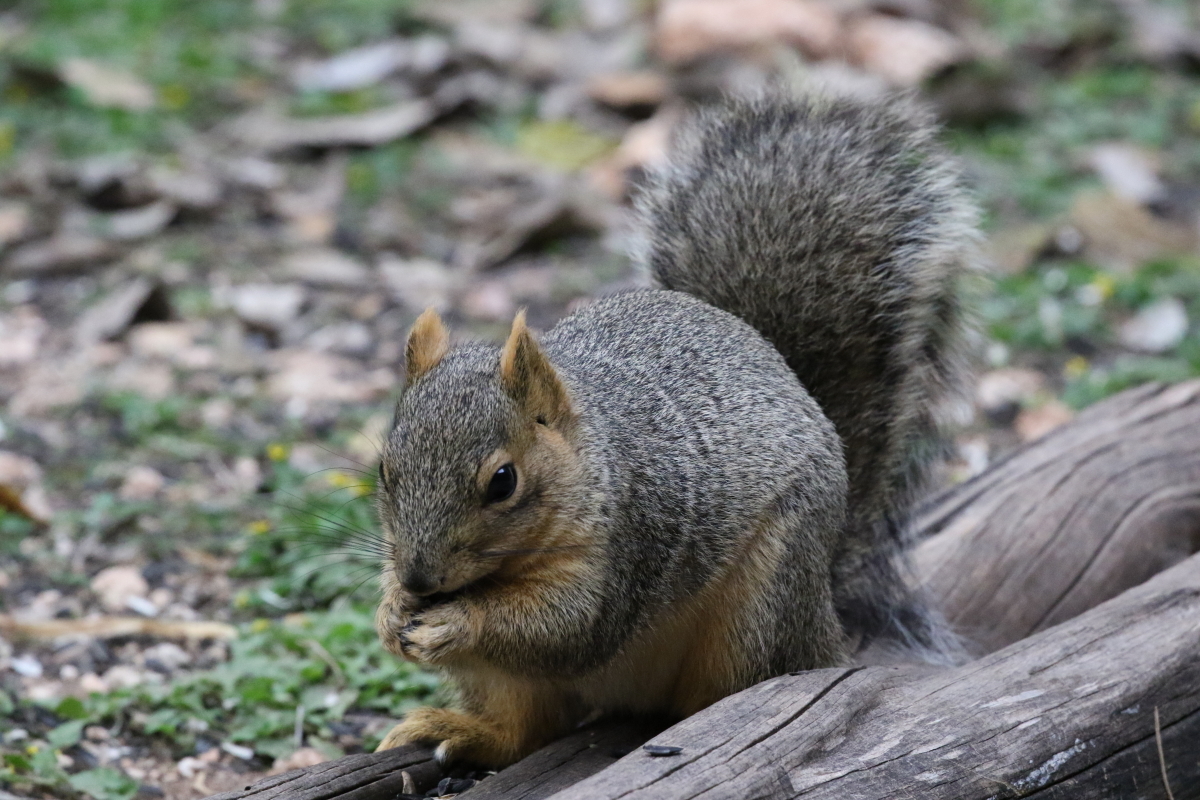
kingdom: Animalia
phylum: Chordata
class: Mammalia
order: Rodentia
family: Sciuridae
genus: Sciurus
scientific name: Sciurus niger
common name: Fox squirrel
